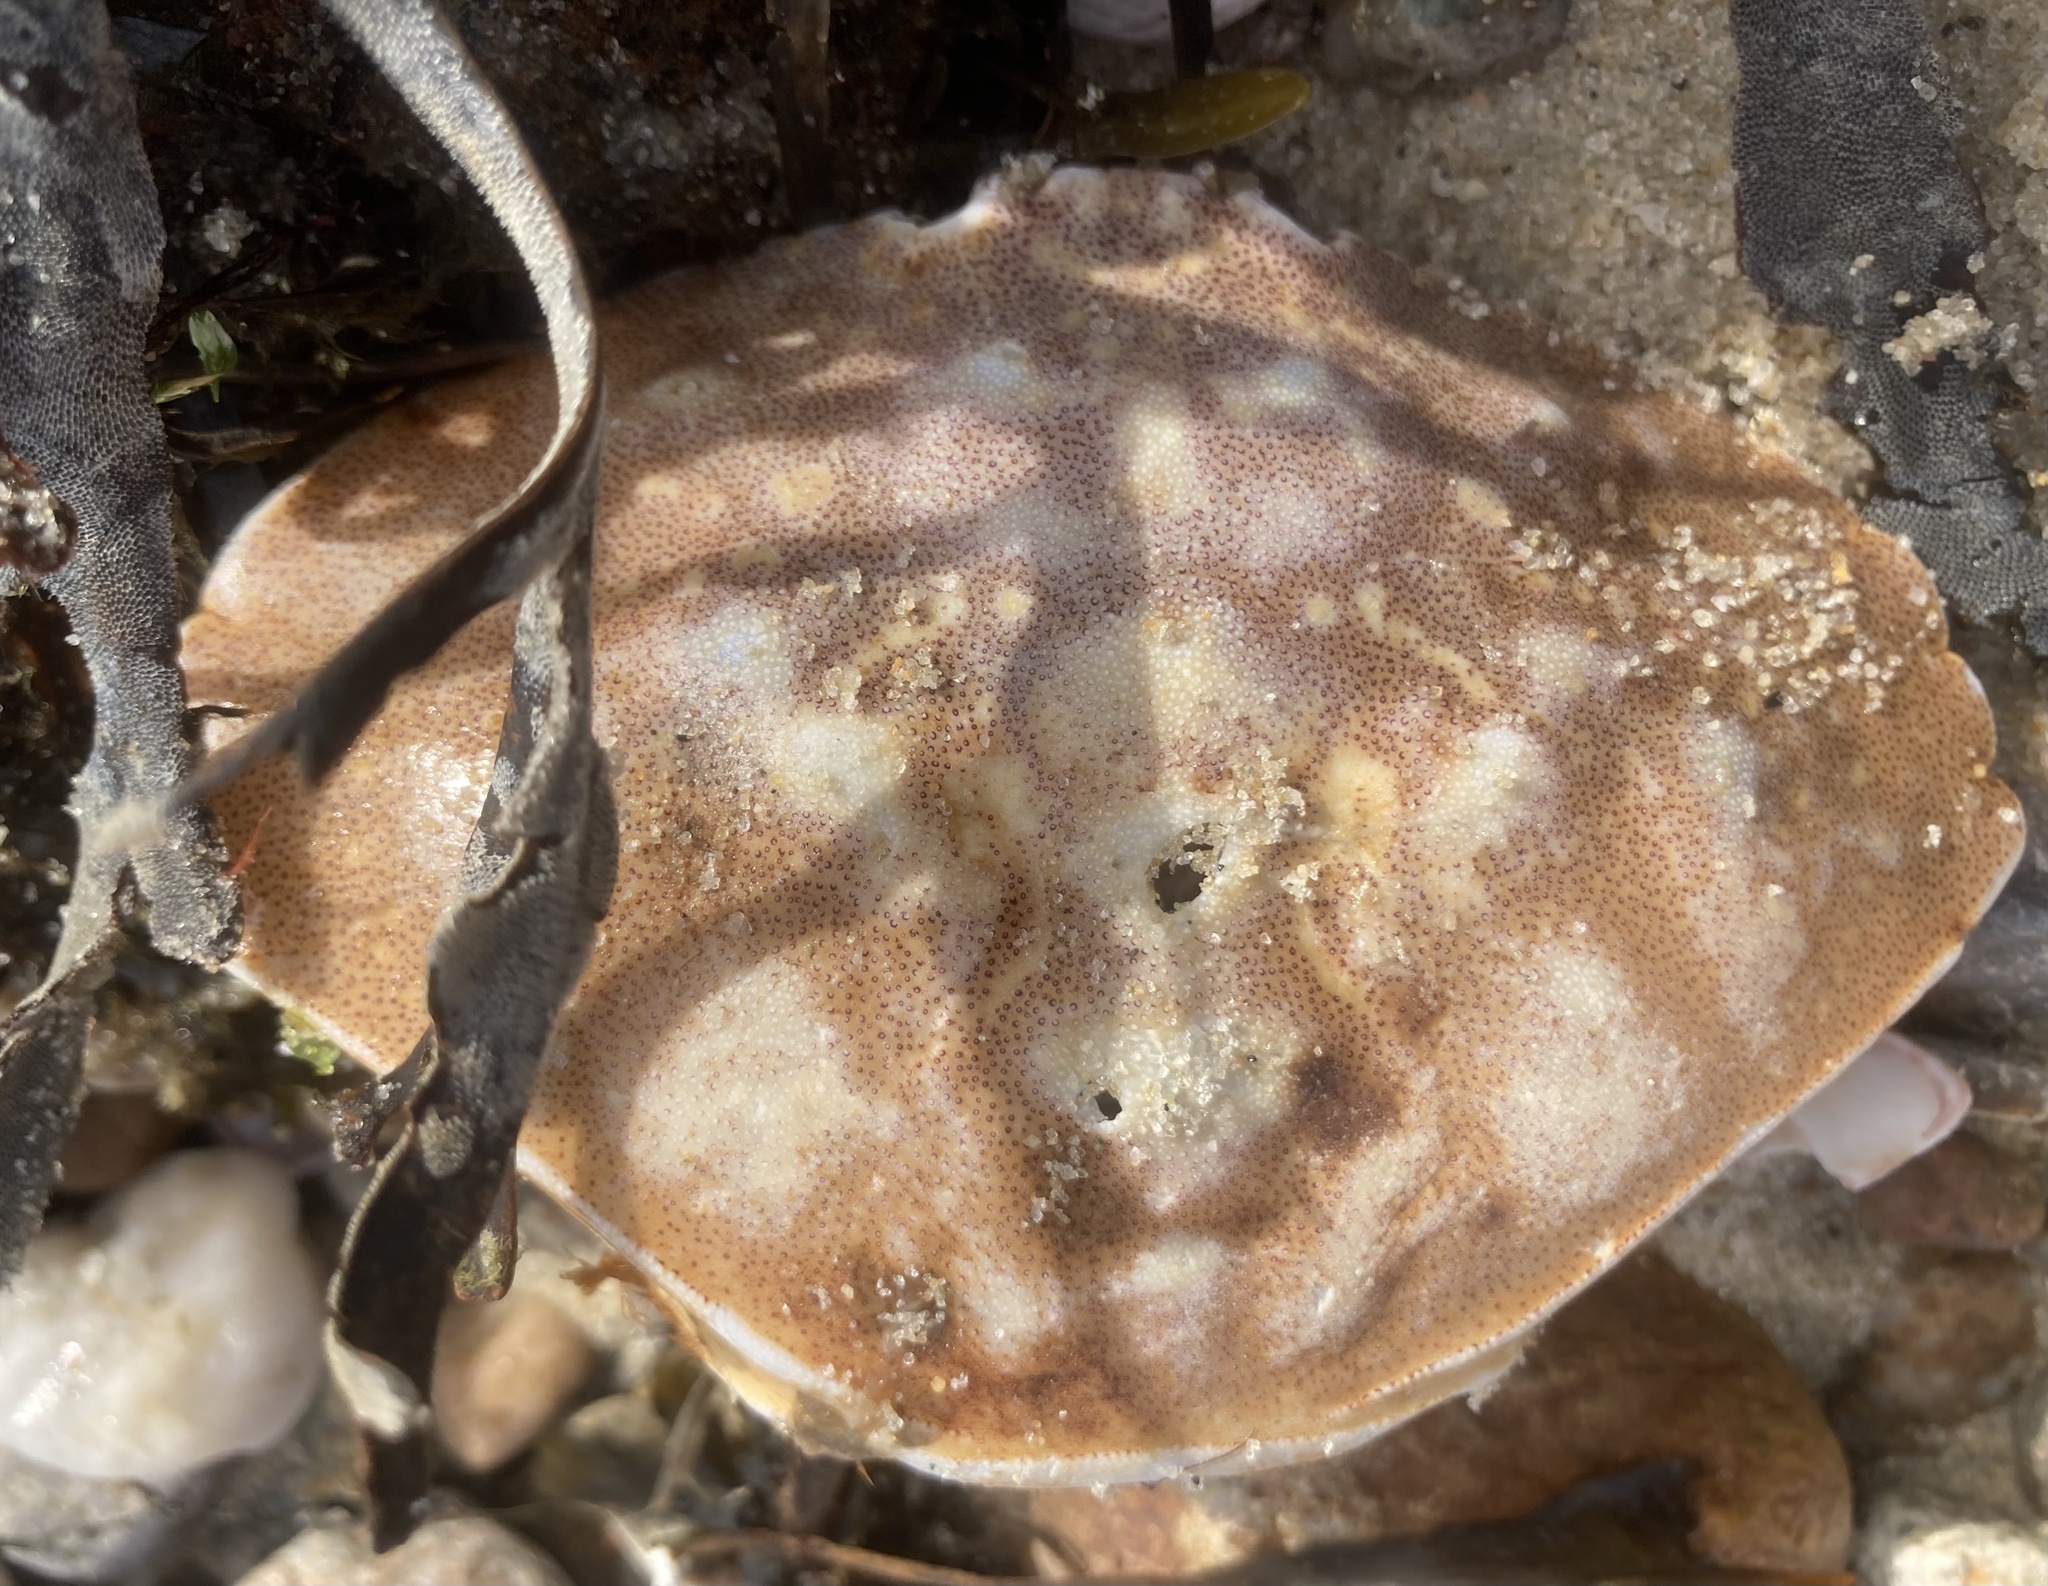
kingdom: Animalia
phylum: Arthropoda
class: Malacostraca
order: Decapoda
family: Cancridae
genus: Cancer
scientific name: Cancer irroratus
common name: Atlantic rock crab
